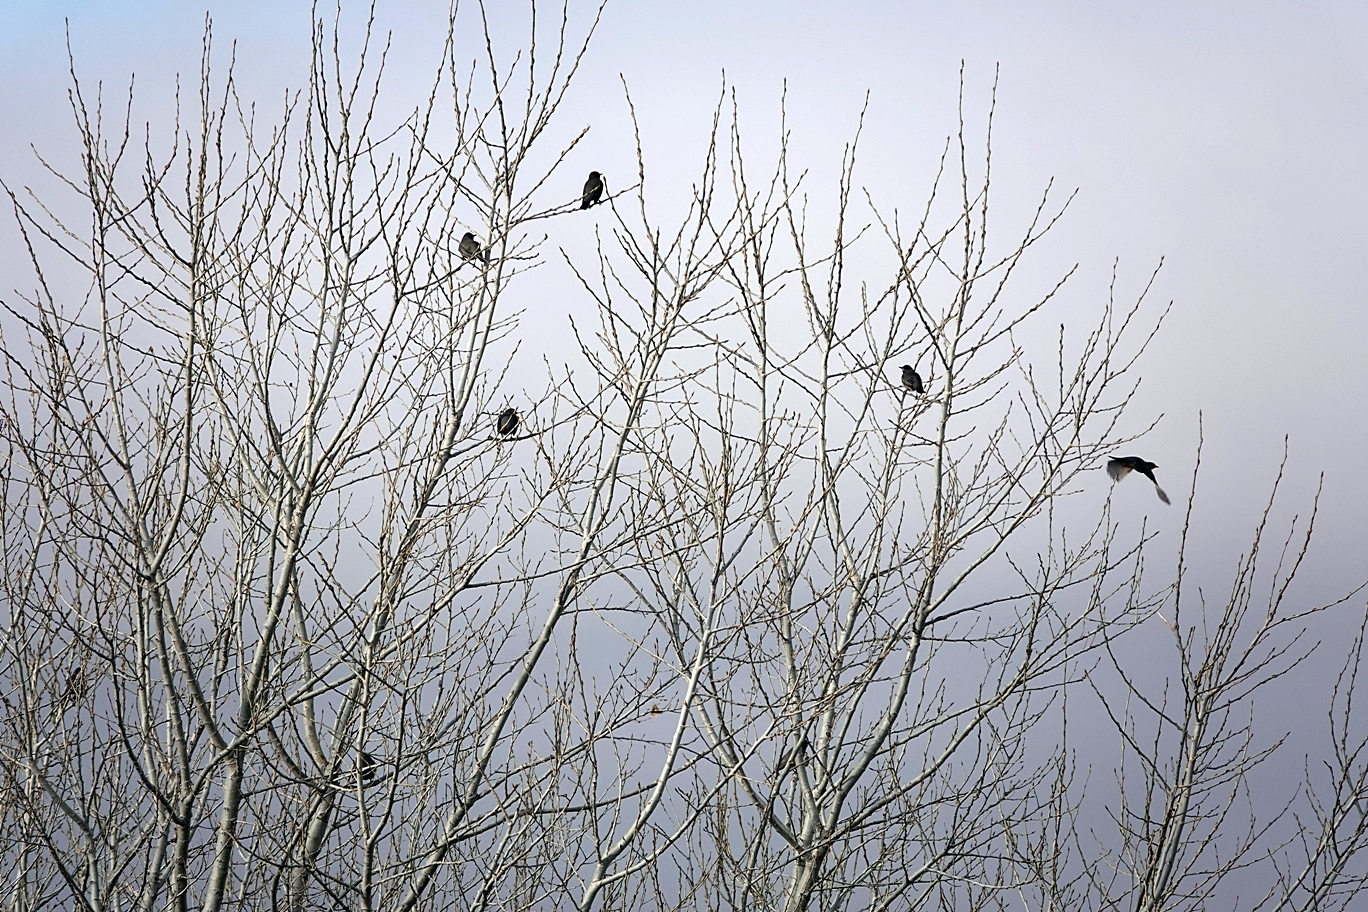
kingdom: Animalia
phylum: Chordata
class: Aves
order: Passeriformes
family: Turdidae
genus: Turdus
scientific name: Turdus migratorius
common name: American robin
